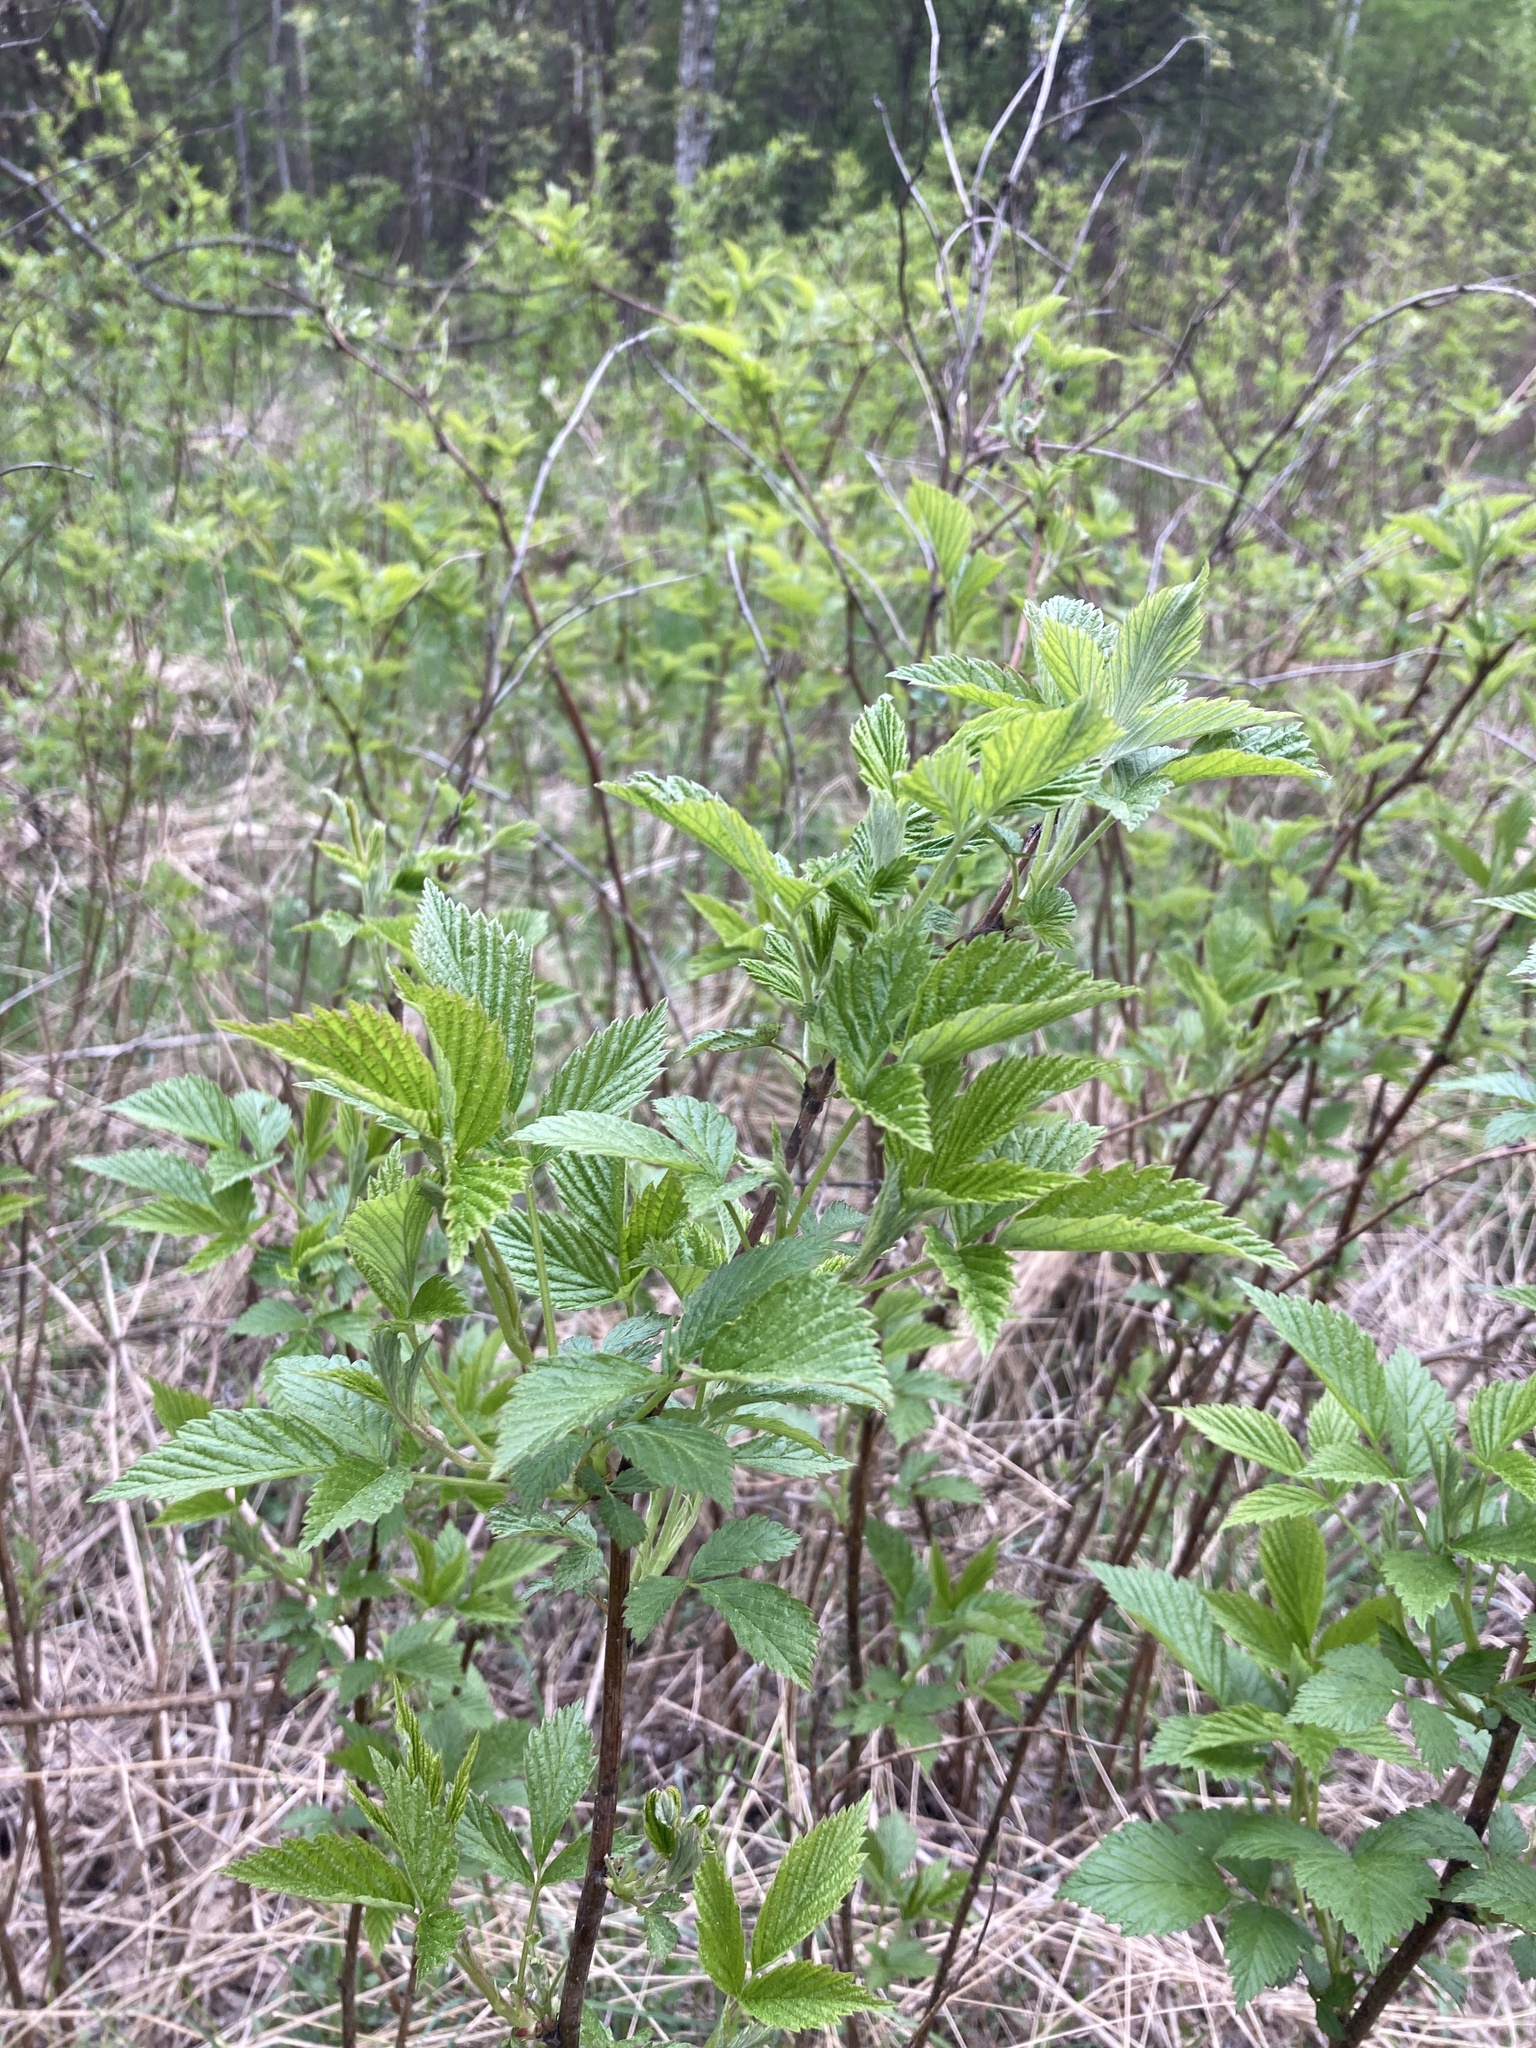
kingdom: Plantae
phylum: Tracheophyta
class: Magnoliopsida
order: Rosales
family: Rosaceae
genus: Rubus
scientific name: Rubus idaeus
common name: Raspberry
